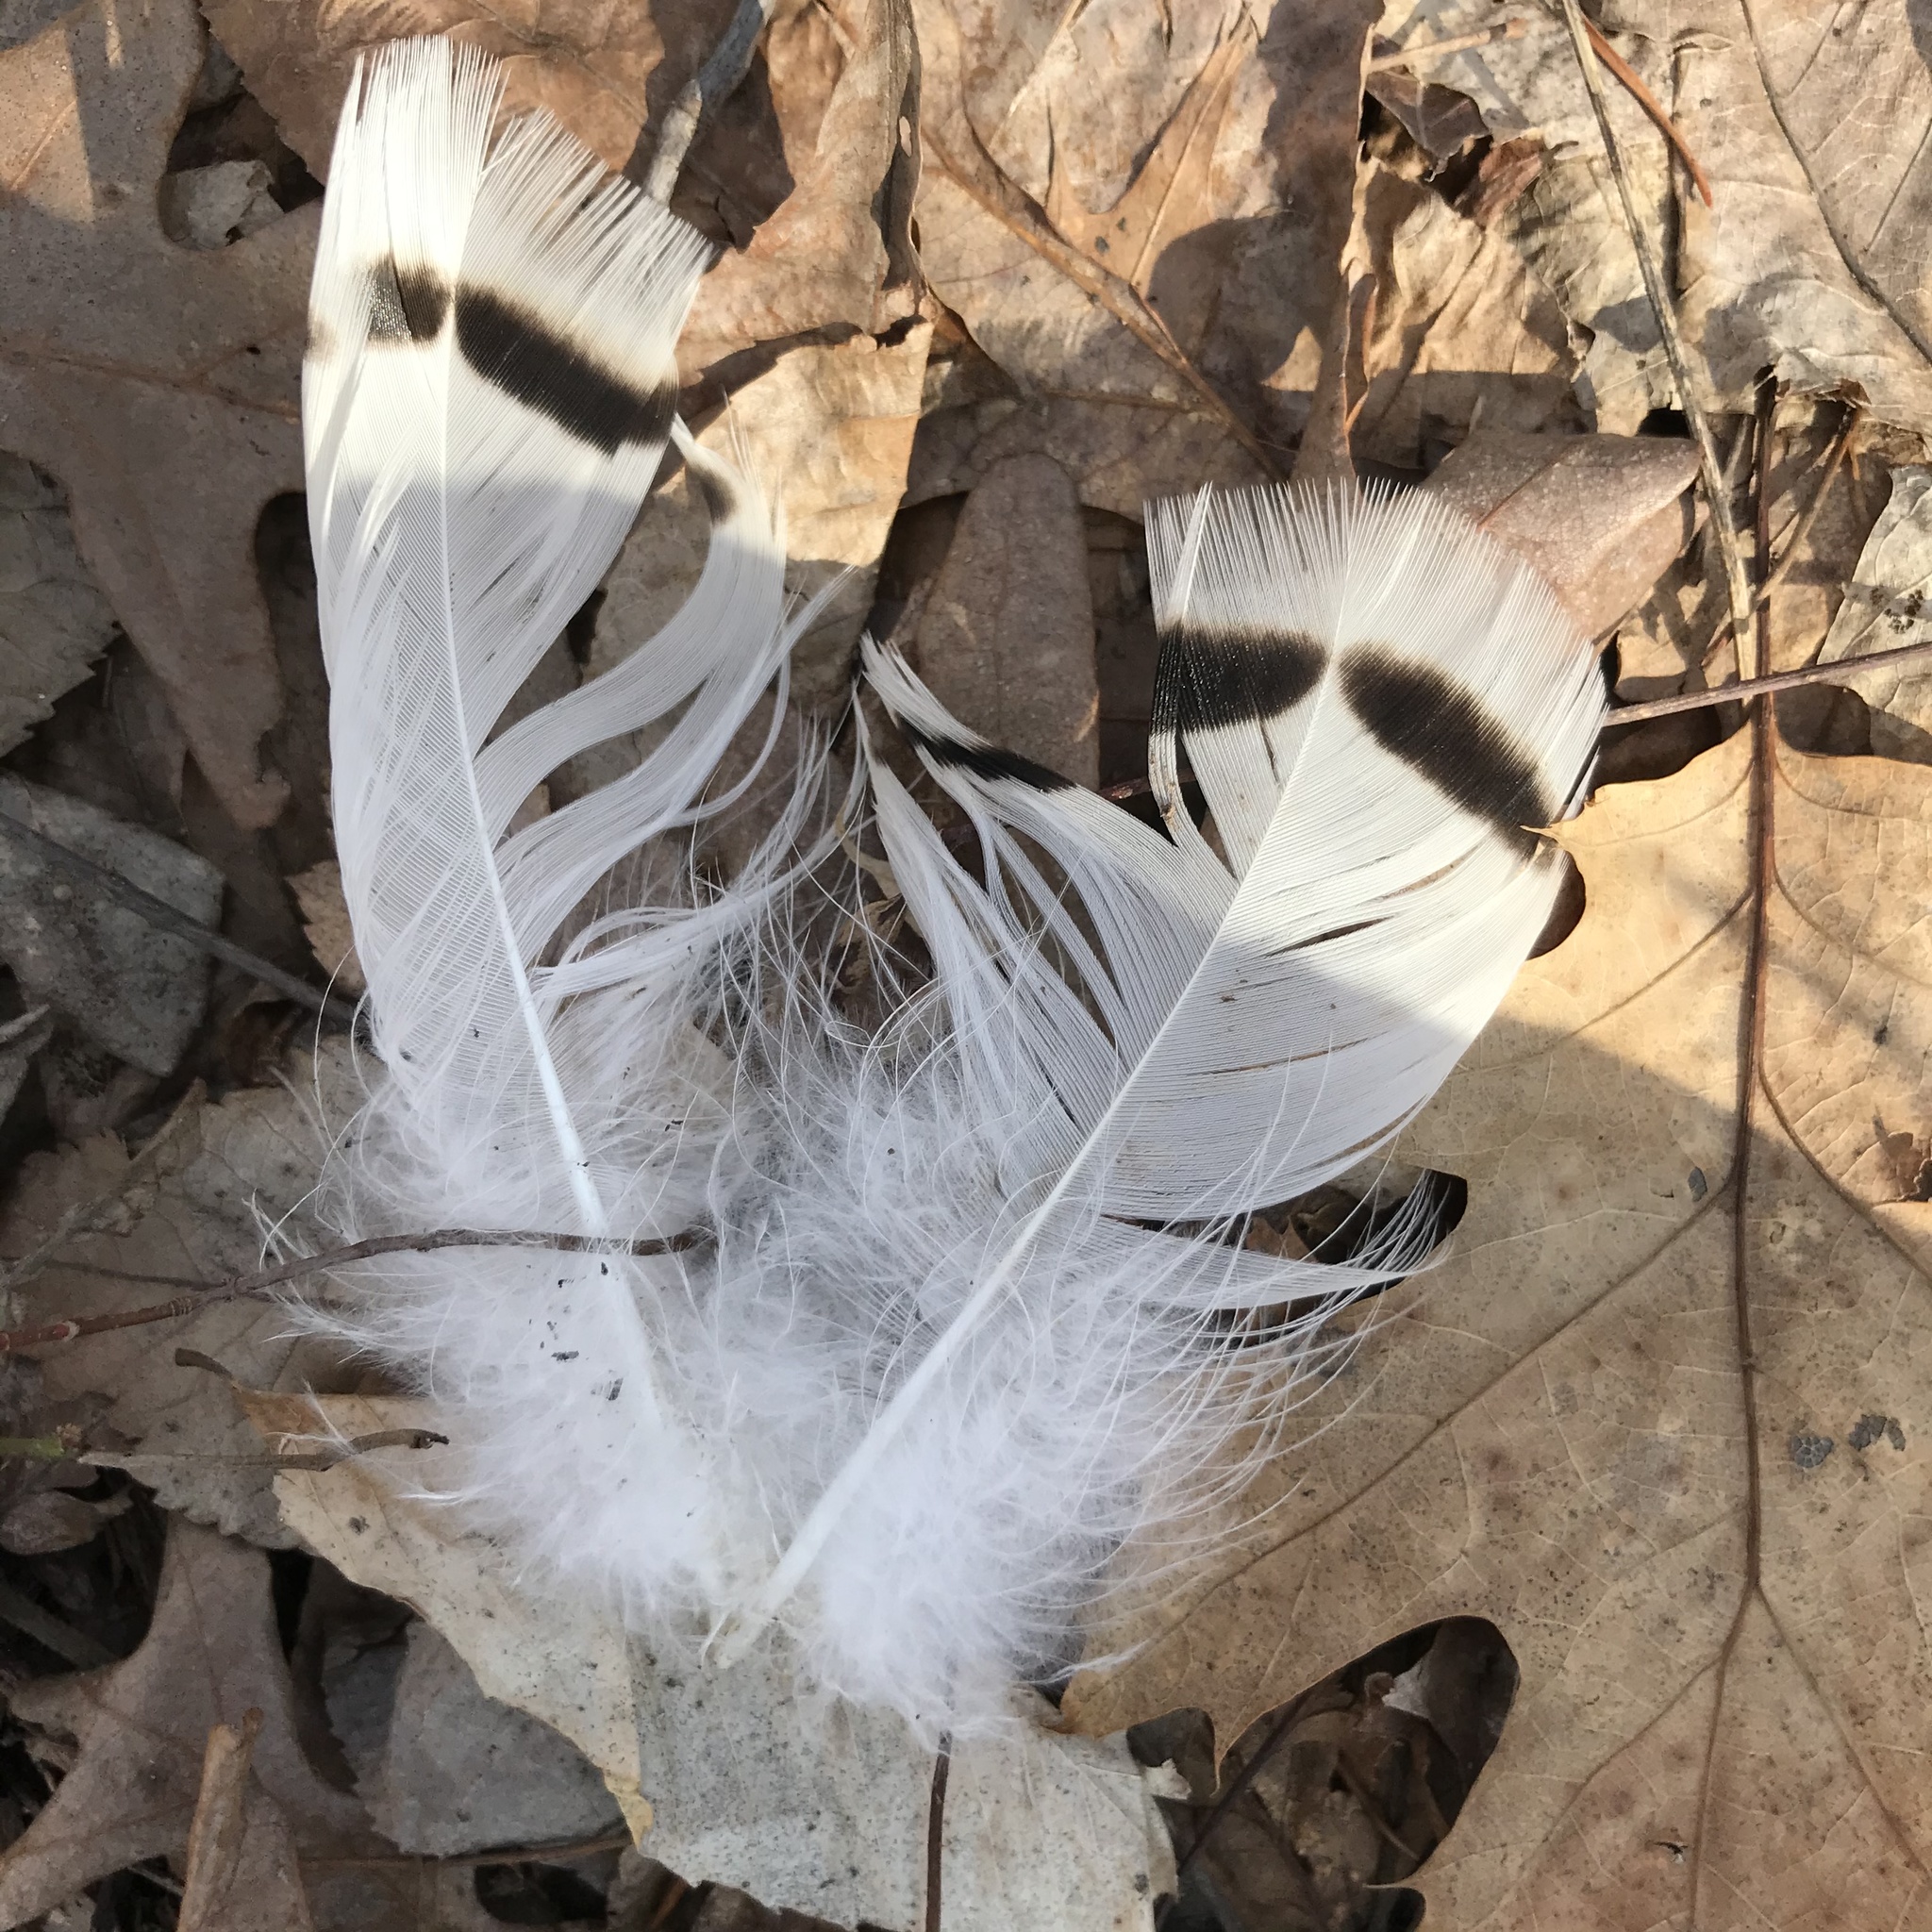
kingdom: Animalia
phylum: Chordata
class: Aves
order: Galliformes
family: Phasianidae
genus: Meleagris
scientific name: Meleagris gallopavo
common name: Wild turkey
